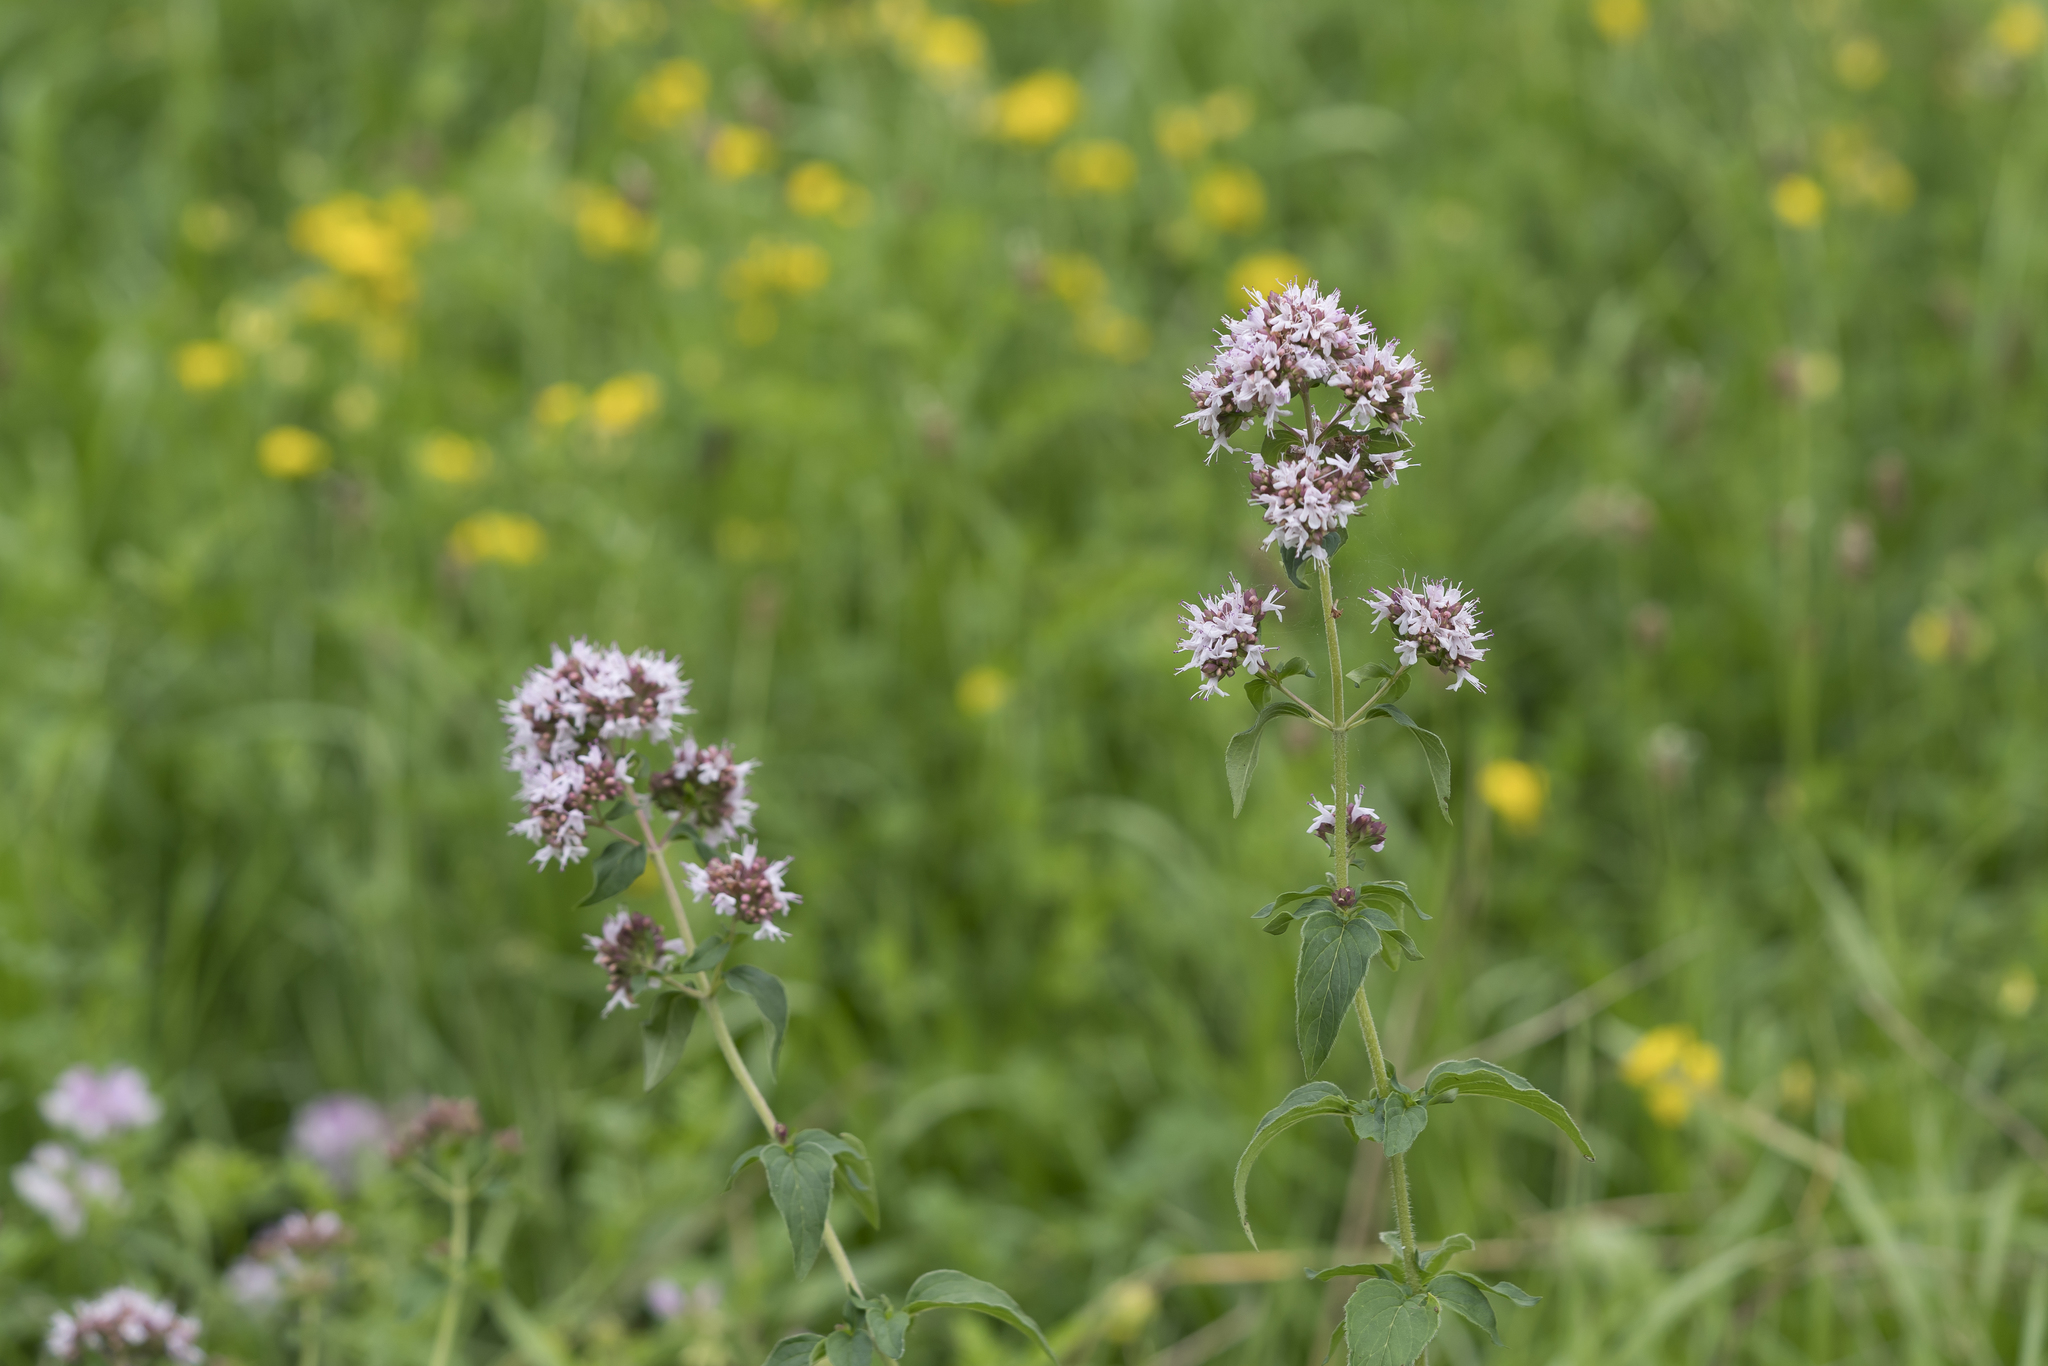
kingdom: Plantae
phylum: Tracheophyta
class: Magnoliopsida
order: Lamiales
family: Lamiaceae
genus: Origanum
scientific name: Origanum vulgare
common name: Wild marjoram
